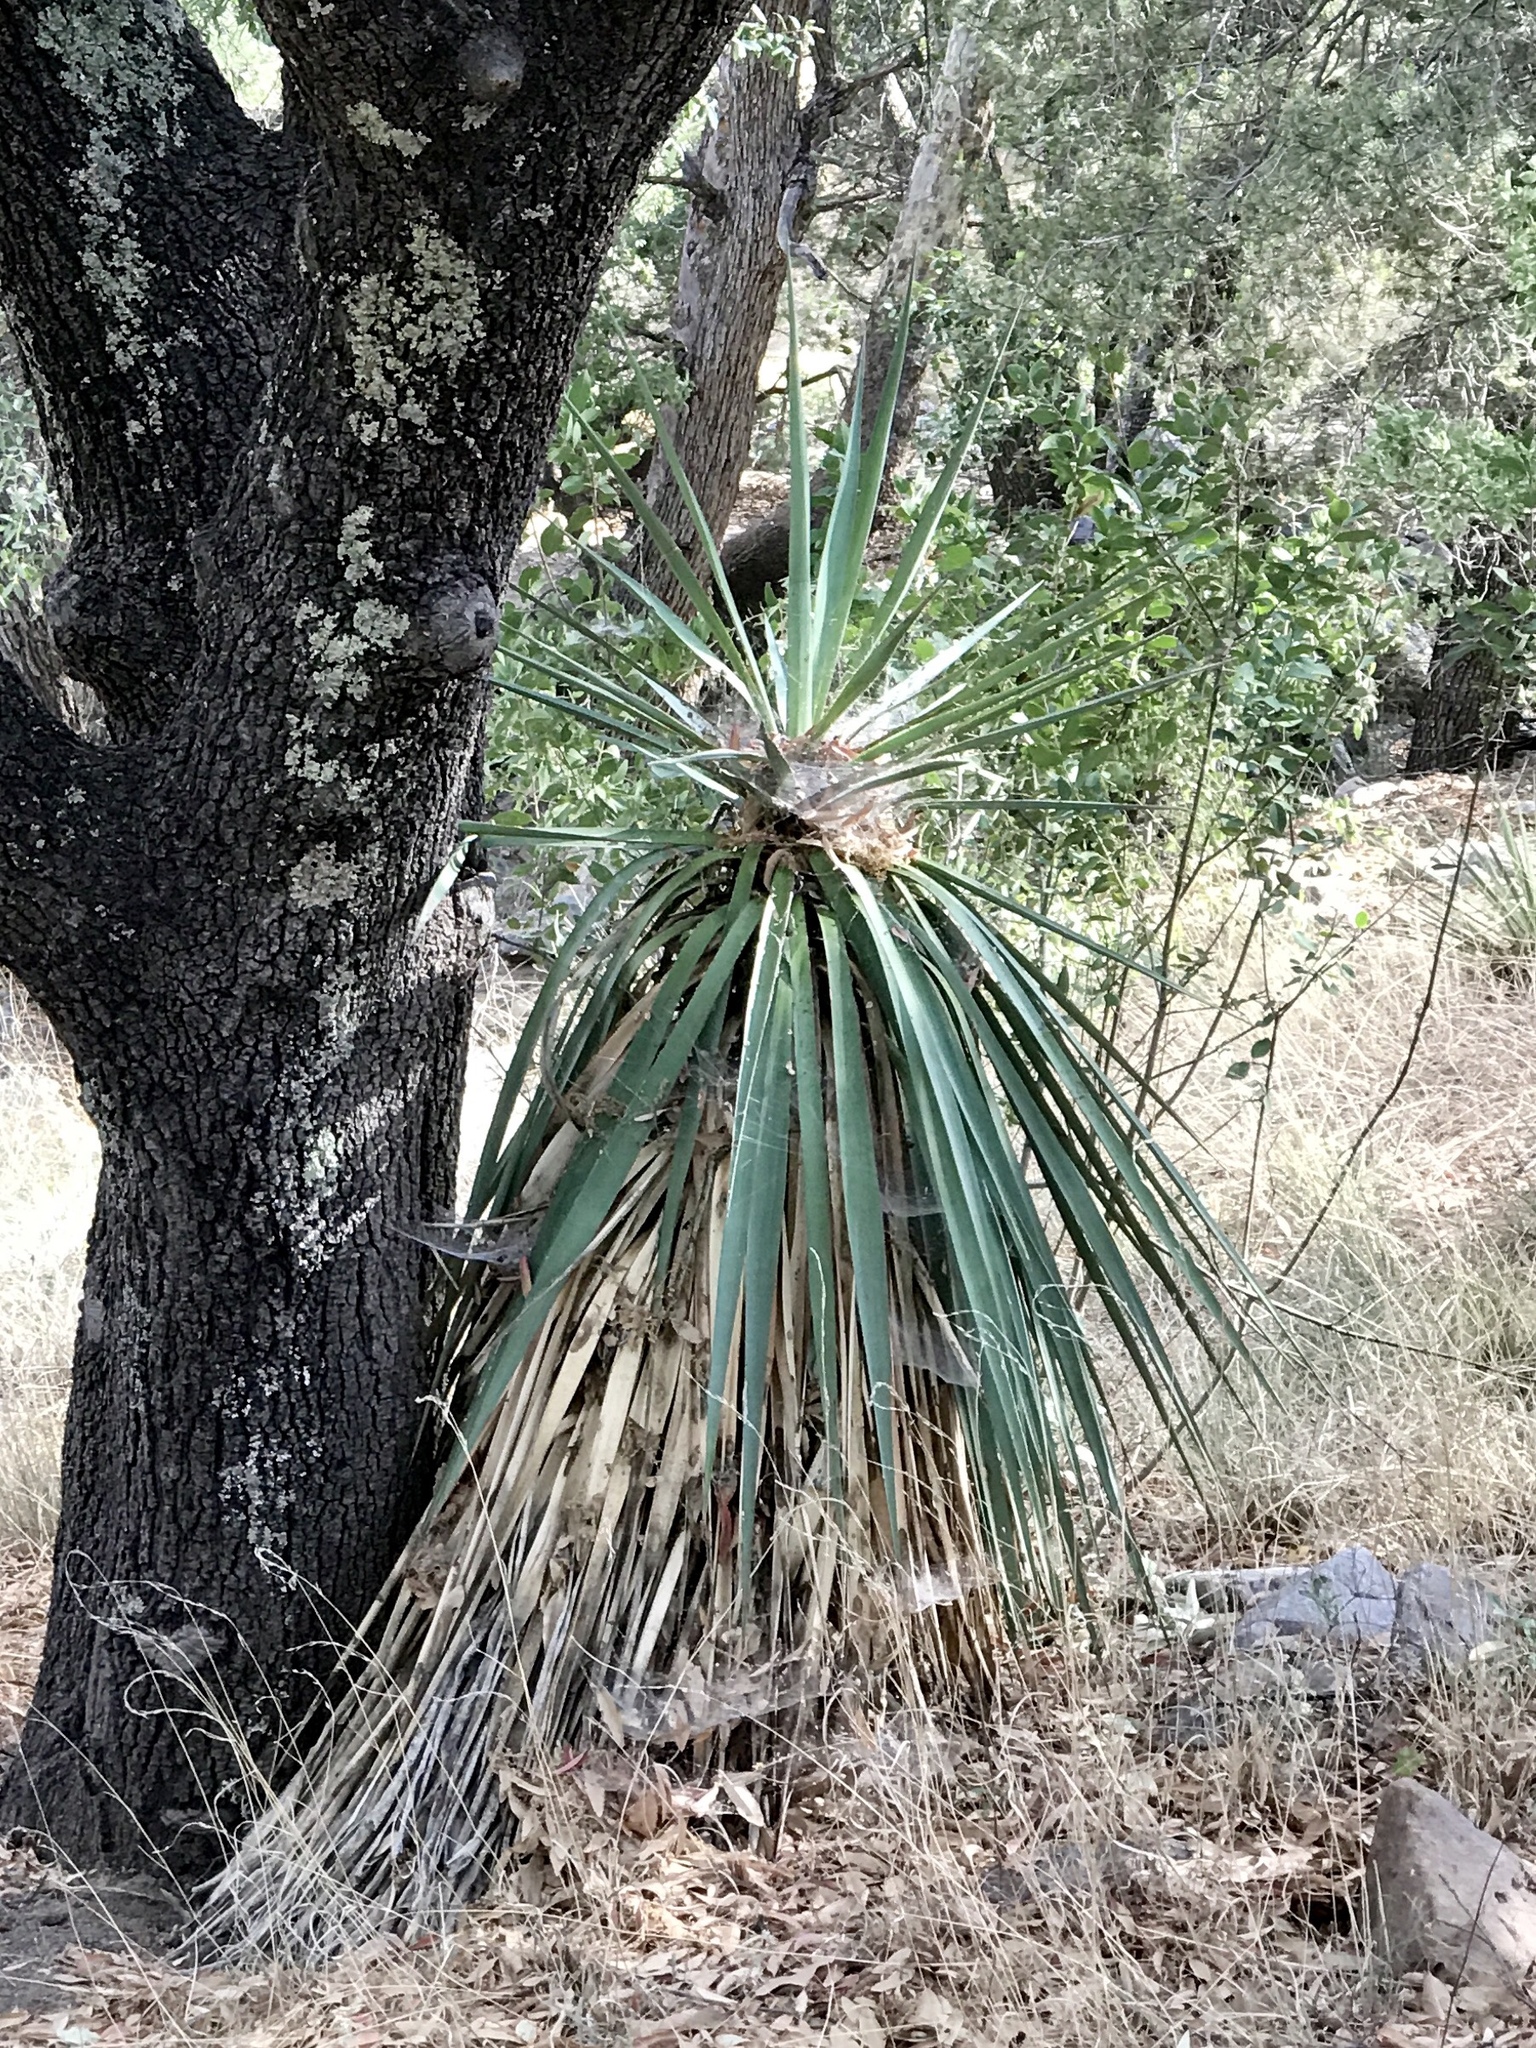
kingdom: Plantae
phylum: Tracheophyta
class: Liliopsida
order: Asparagales
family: Asparagaceae
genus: Yucca
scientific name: Yucca madrensis
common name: Hoary yucca
